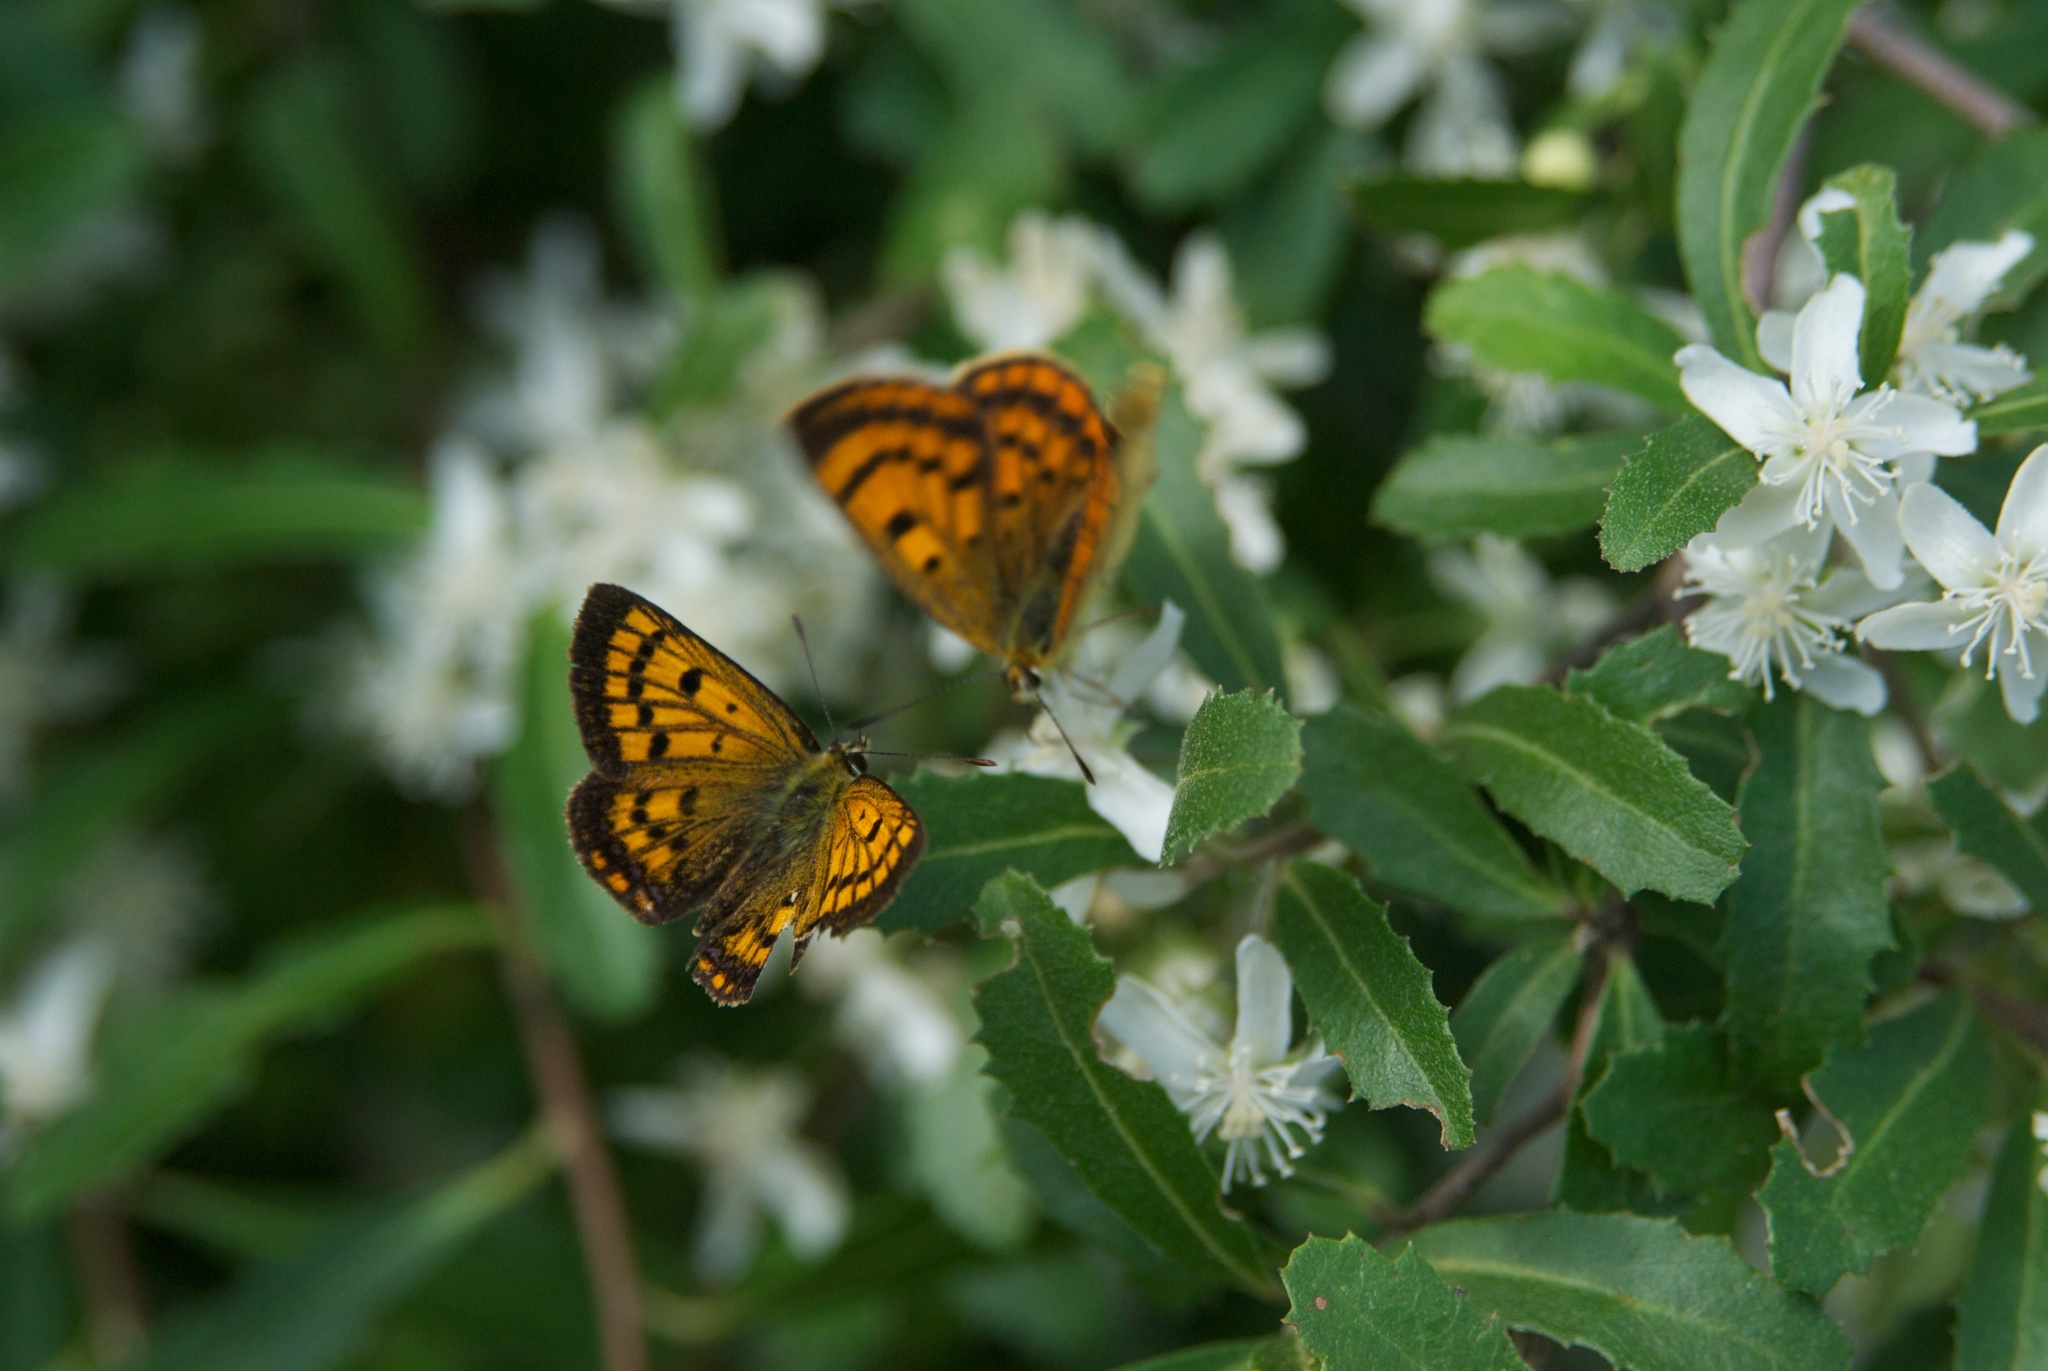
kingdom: Animalia
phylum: Arthropoda
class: Insecta
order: Lepidoptera
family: Lycaenidae
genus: Lycaena
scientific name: Lycaena salustius
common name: North island coastal copper
